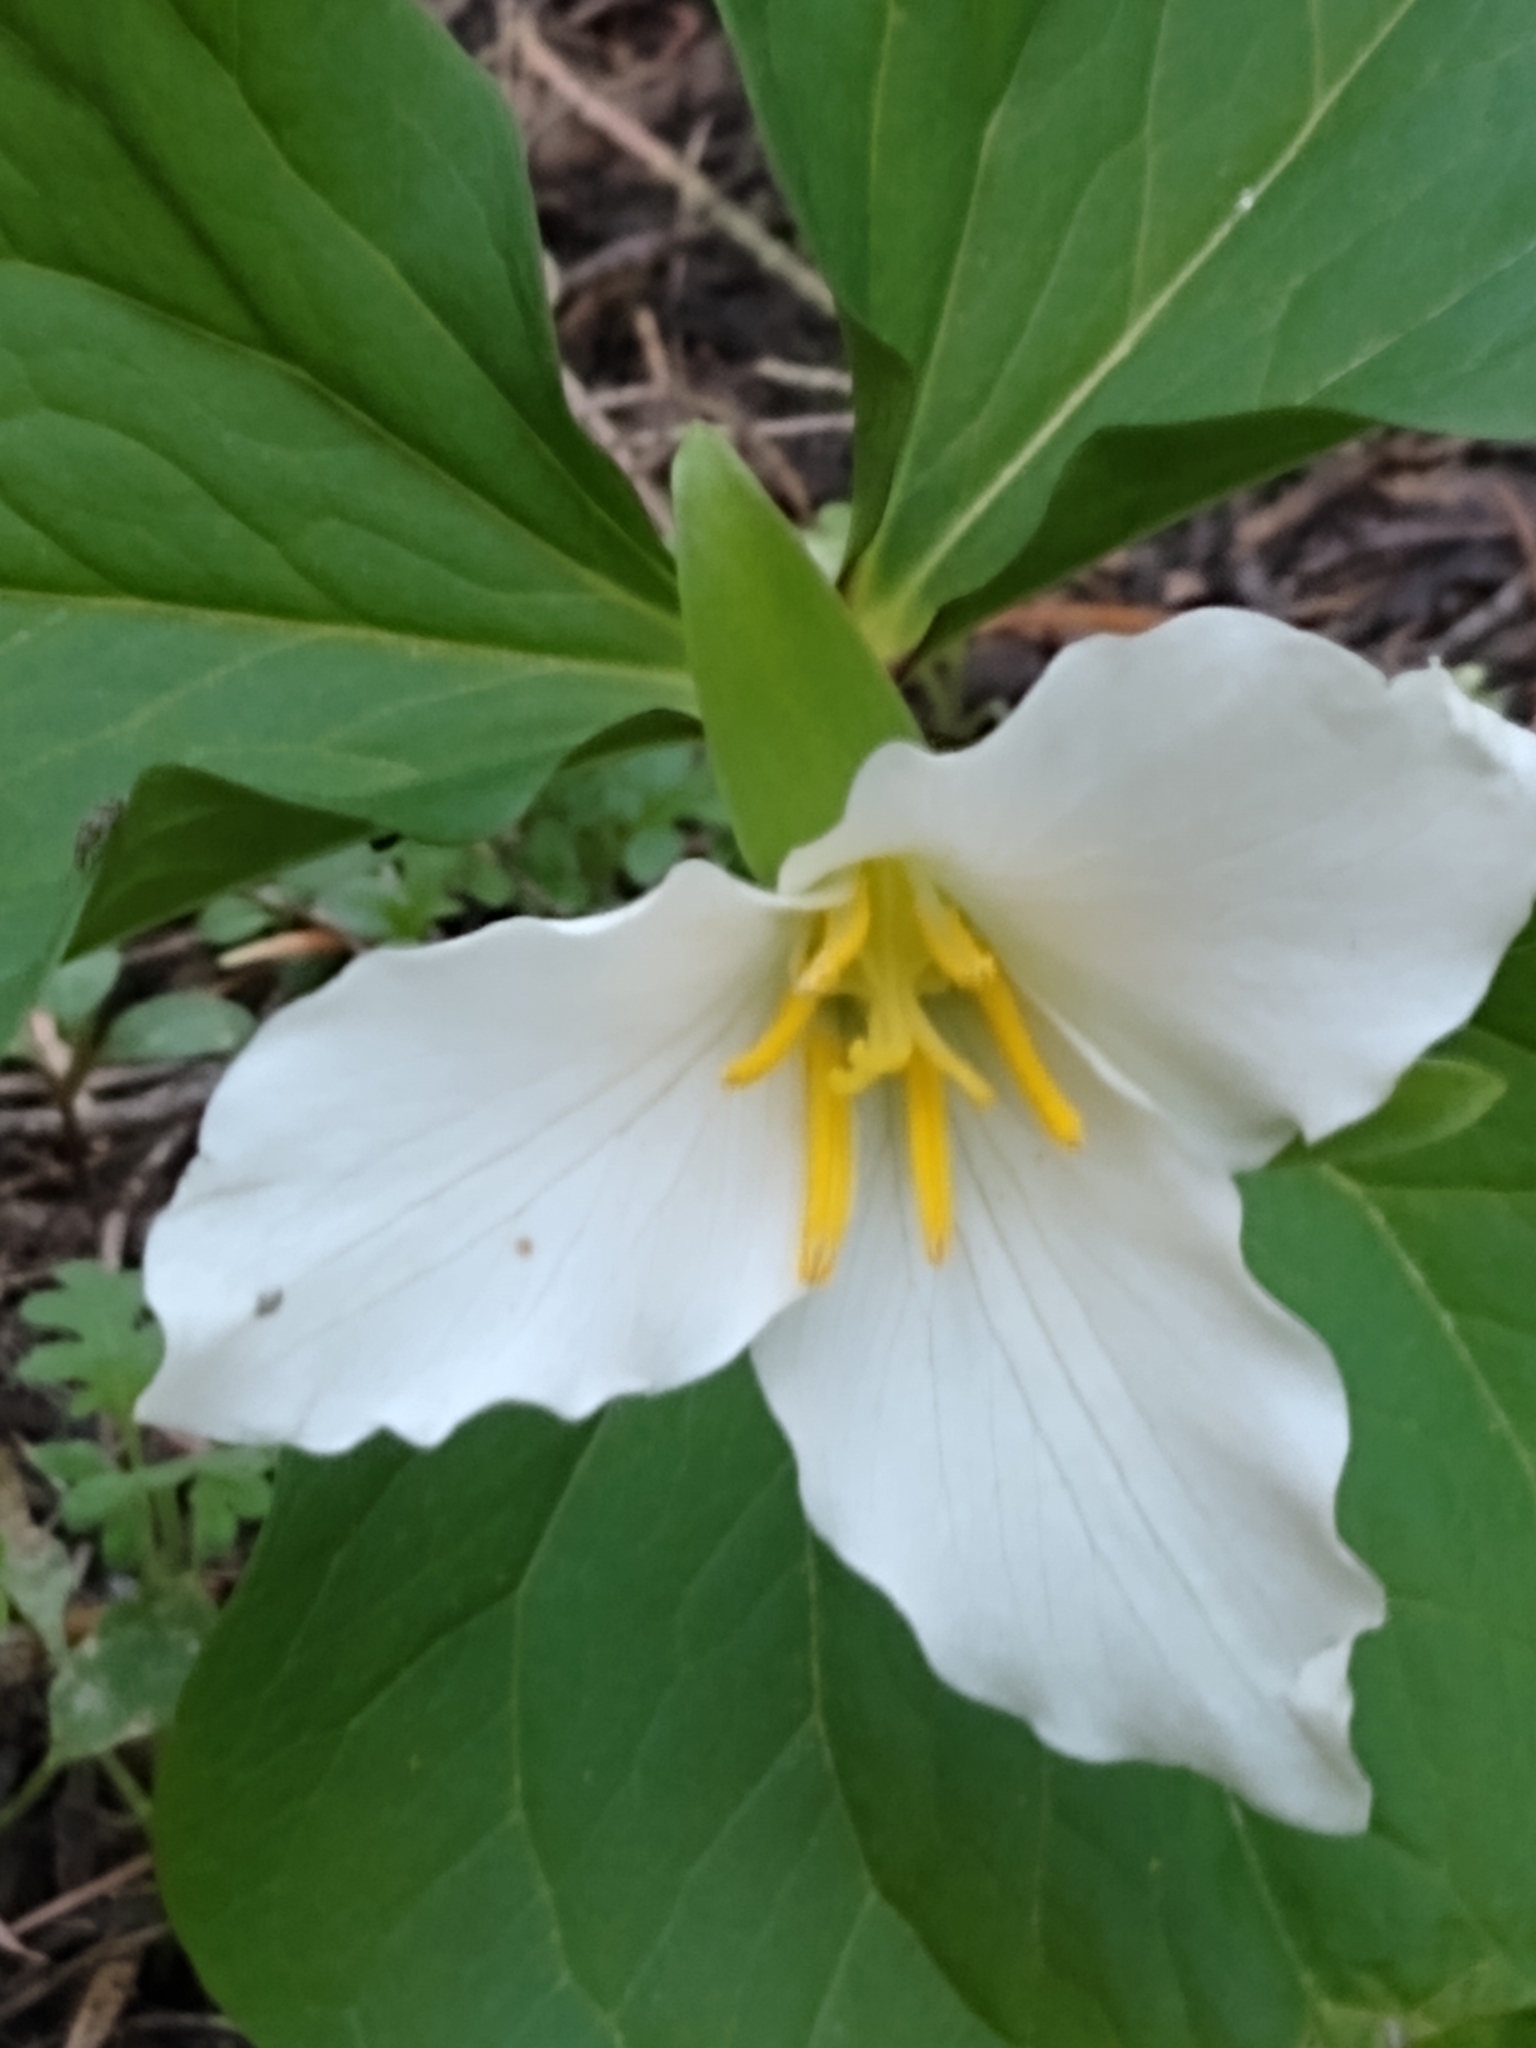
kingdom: Plantae
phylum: Tracheophyta
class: Liliopsida
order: Liliales
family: Melanthiaceae
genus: Trillium
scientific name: Trillium ovatum
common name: Pacific trillium
